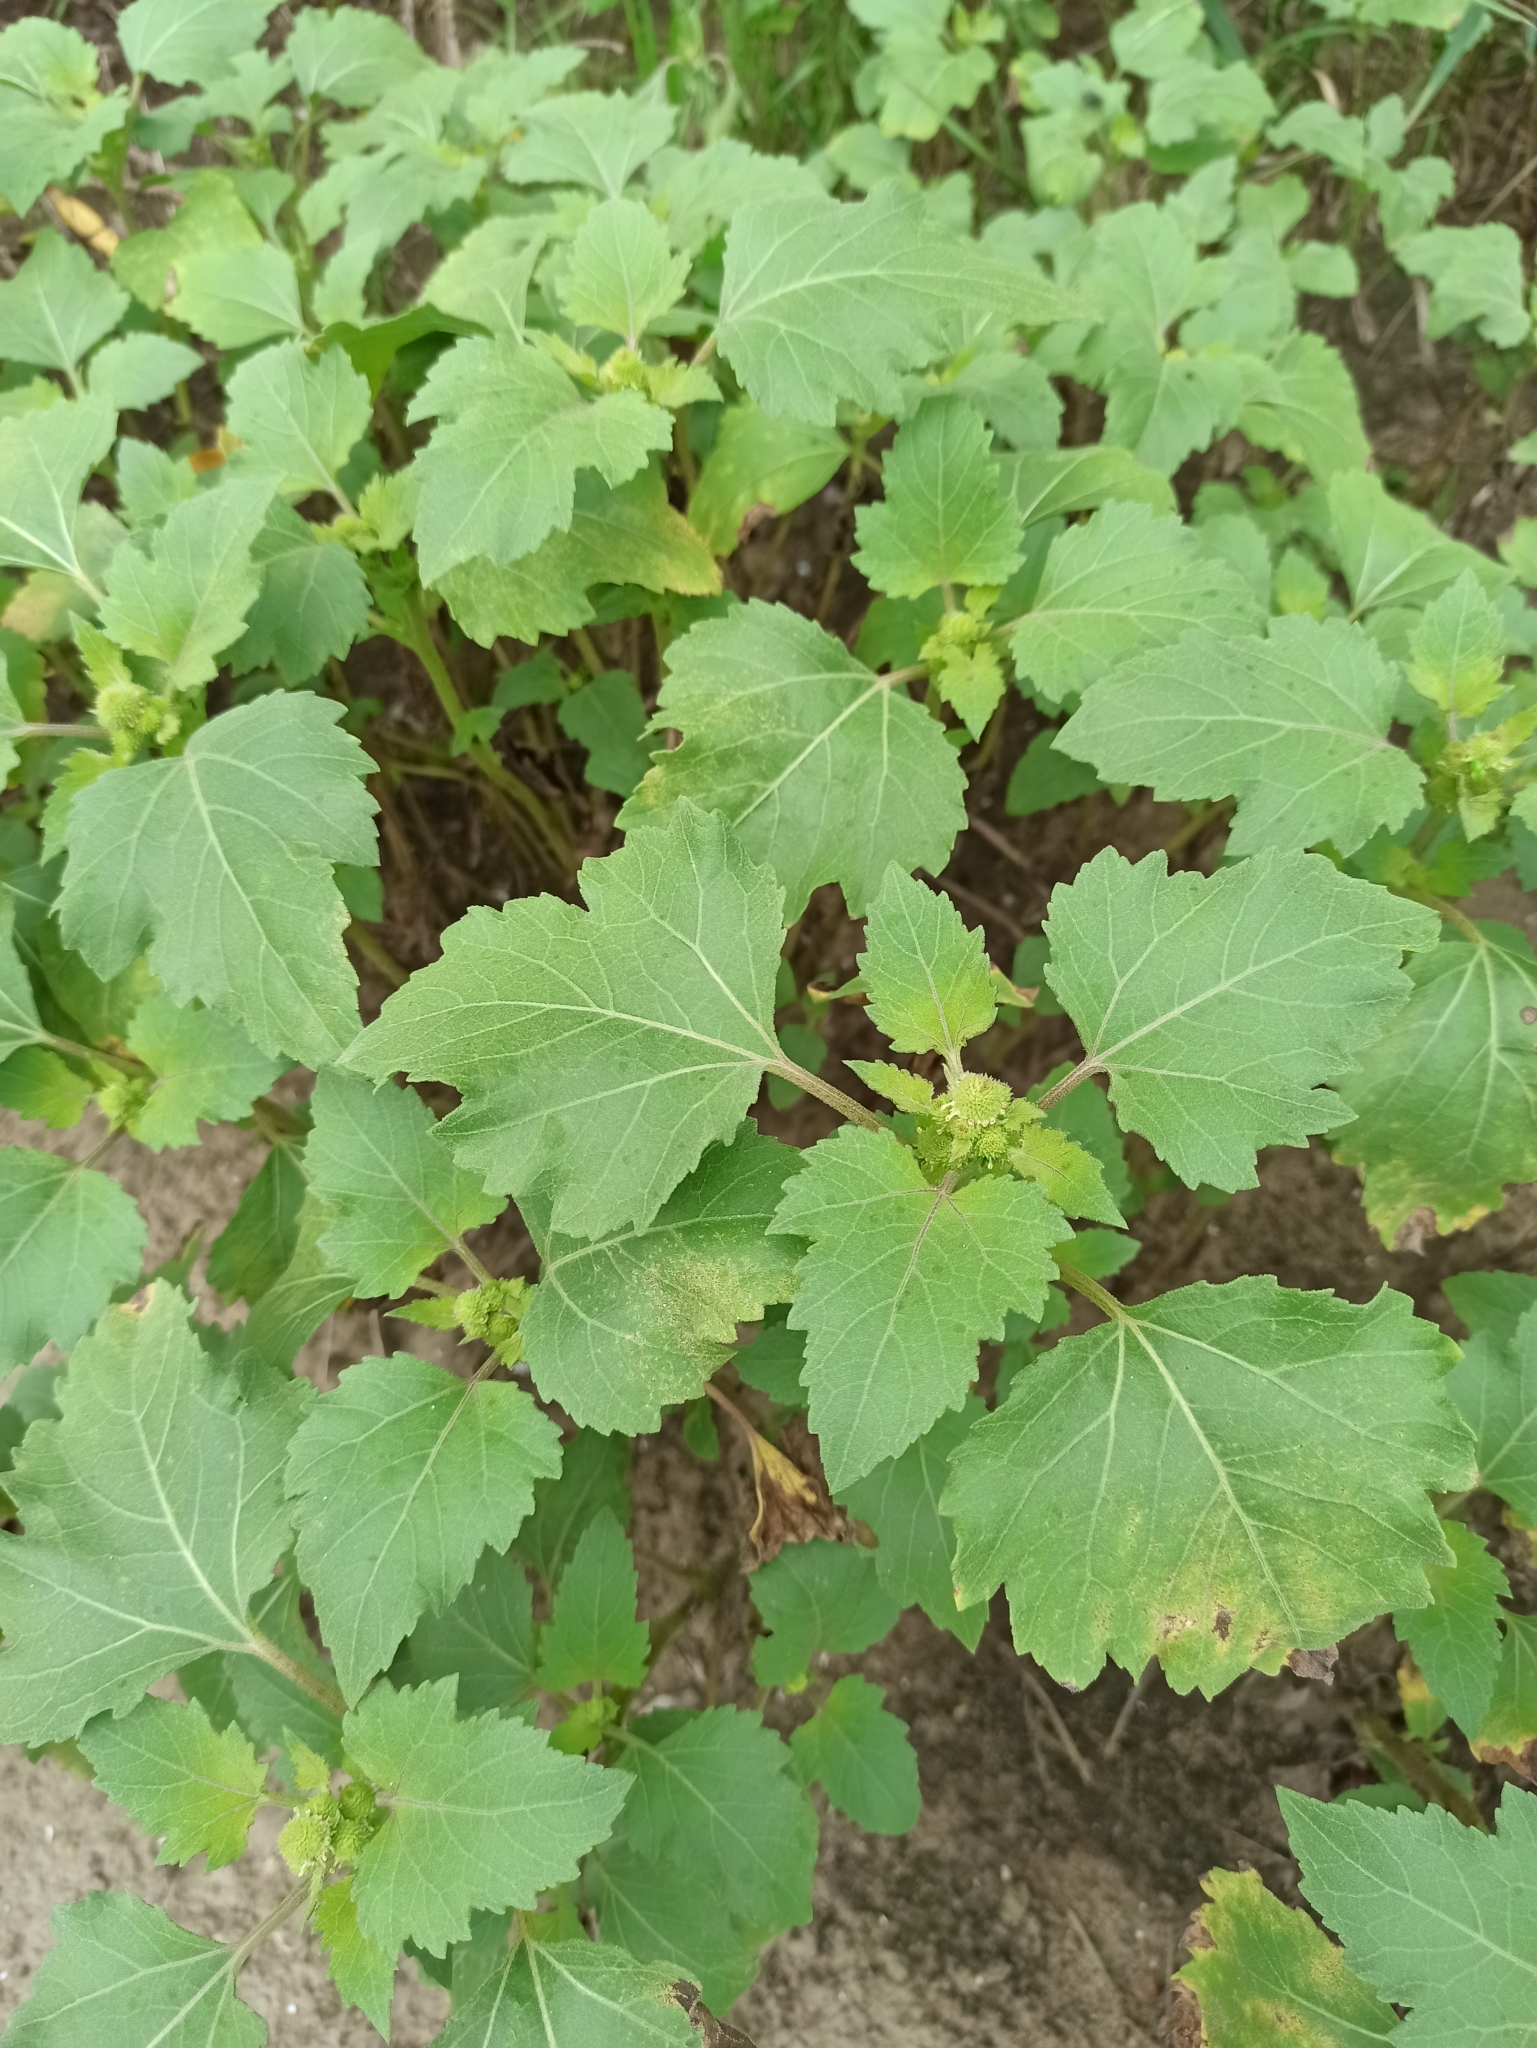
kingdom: Plantae
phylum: Tracheophyta
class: Magnoliopsida
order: Asterales
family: Asteraceae
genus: Xanthium
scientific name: Xanthium orientale
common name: Californian burr
